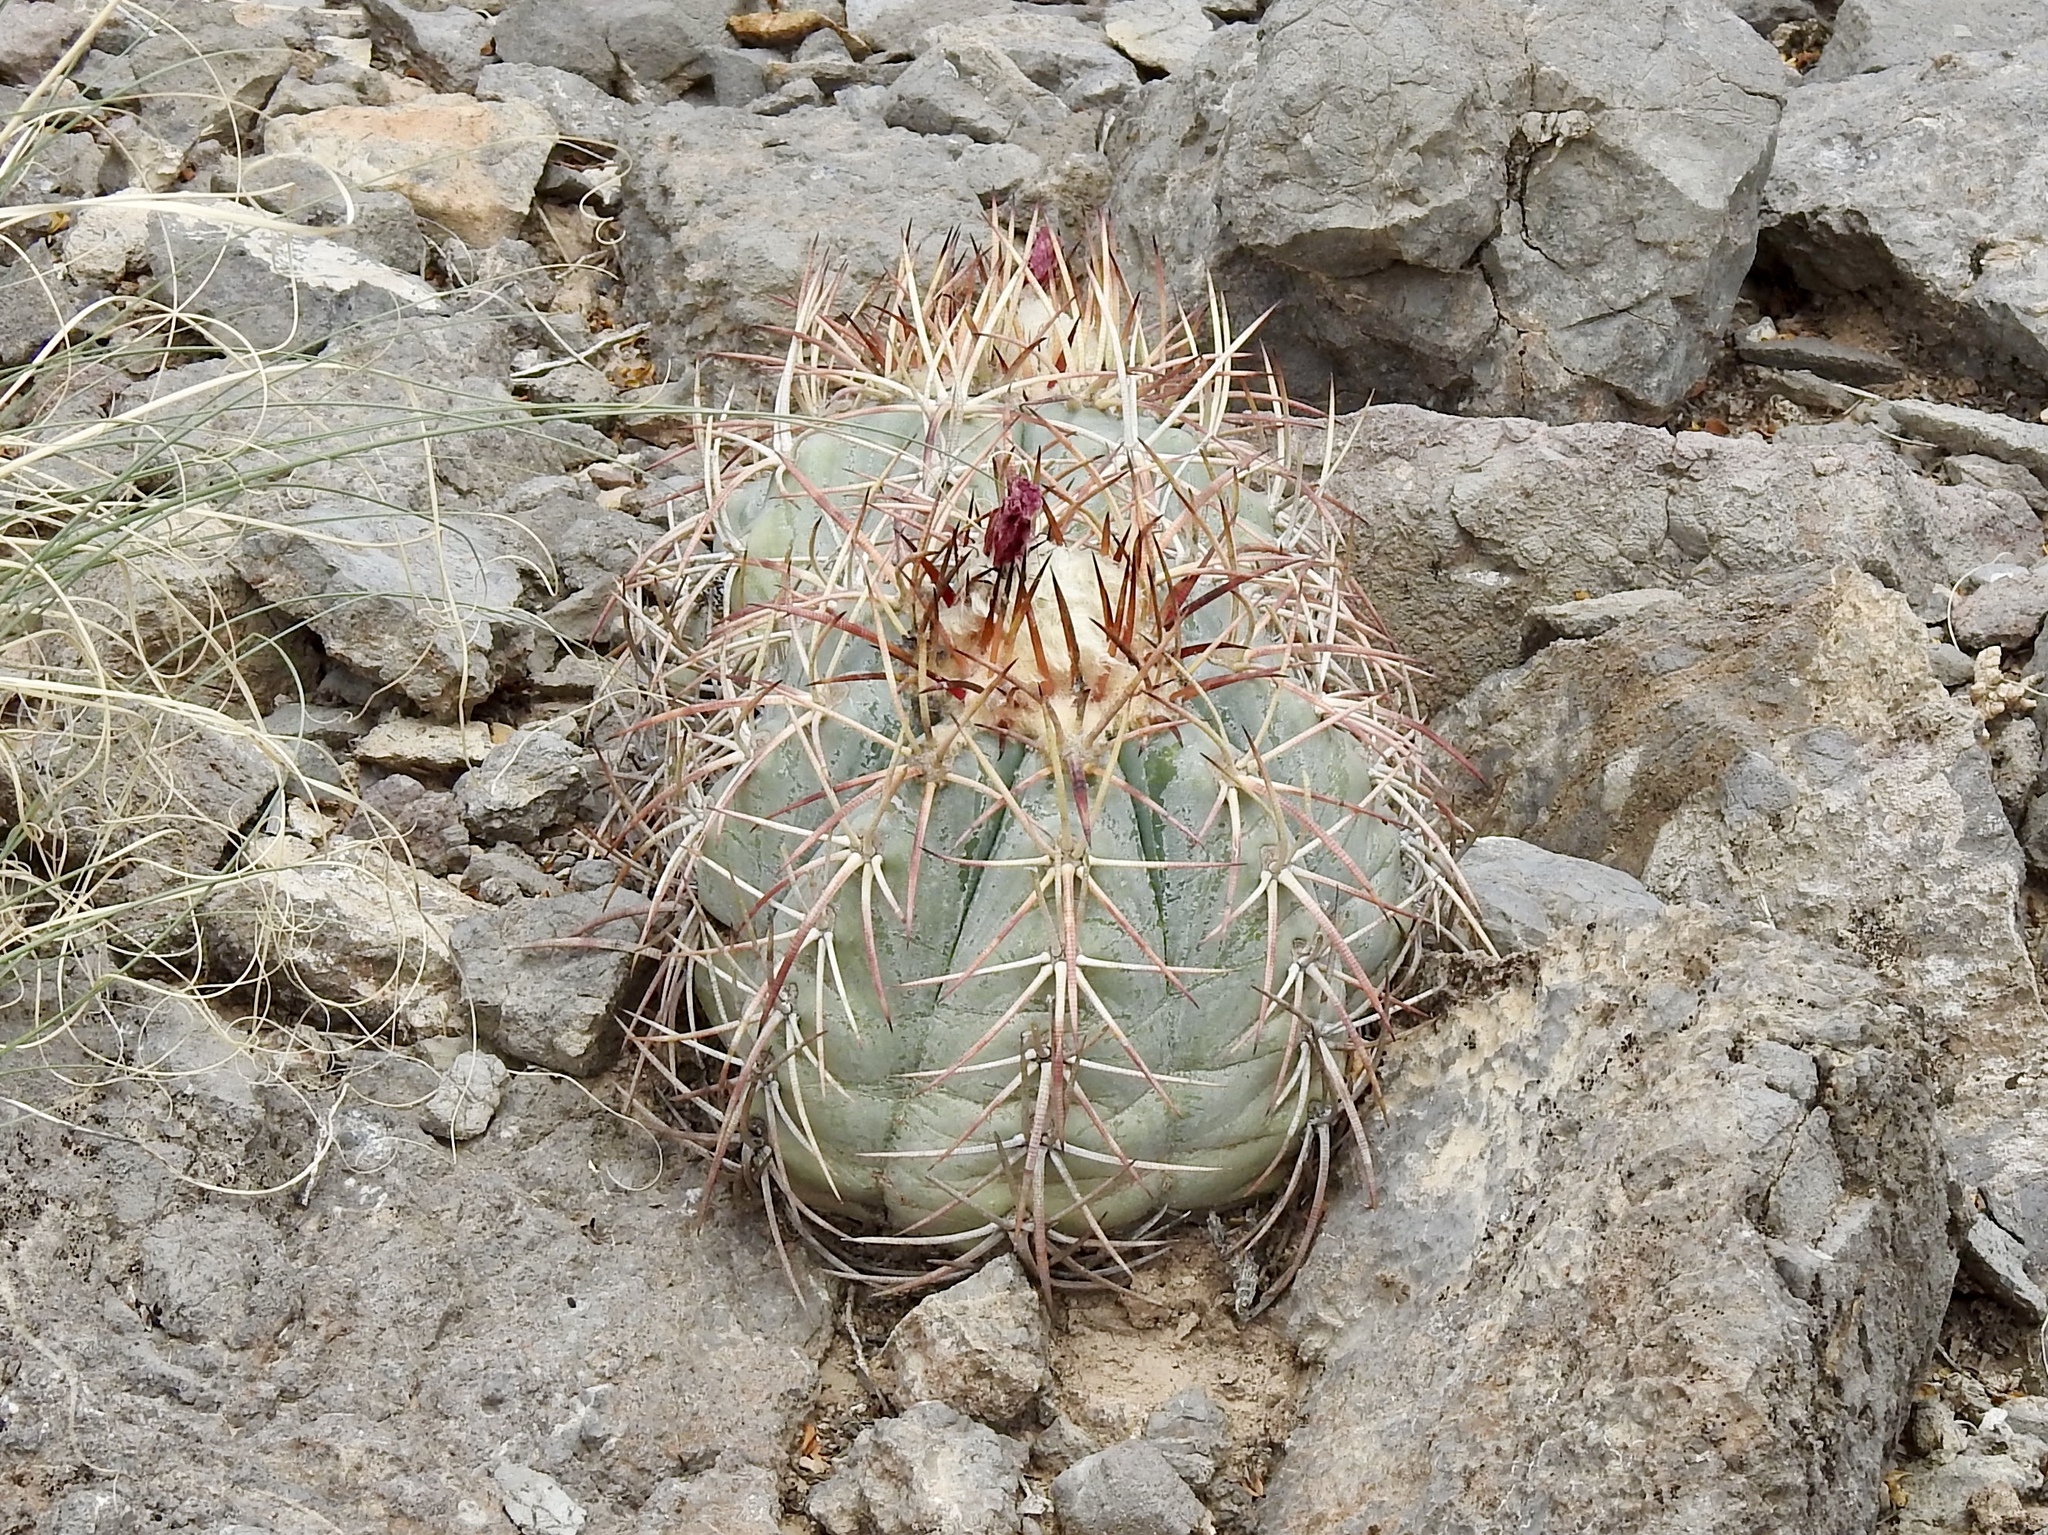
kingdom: Plantae
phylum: Tracheophyta
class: Magnoliopsida
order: Caryophyllales
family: Cactaceae
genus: Echinocactus
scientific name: Echinocactus horizonthalonius
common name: Devilshead
